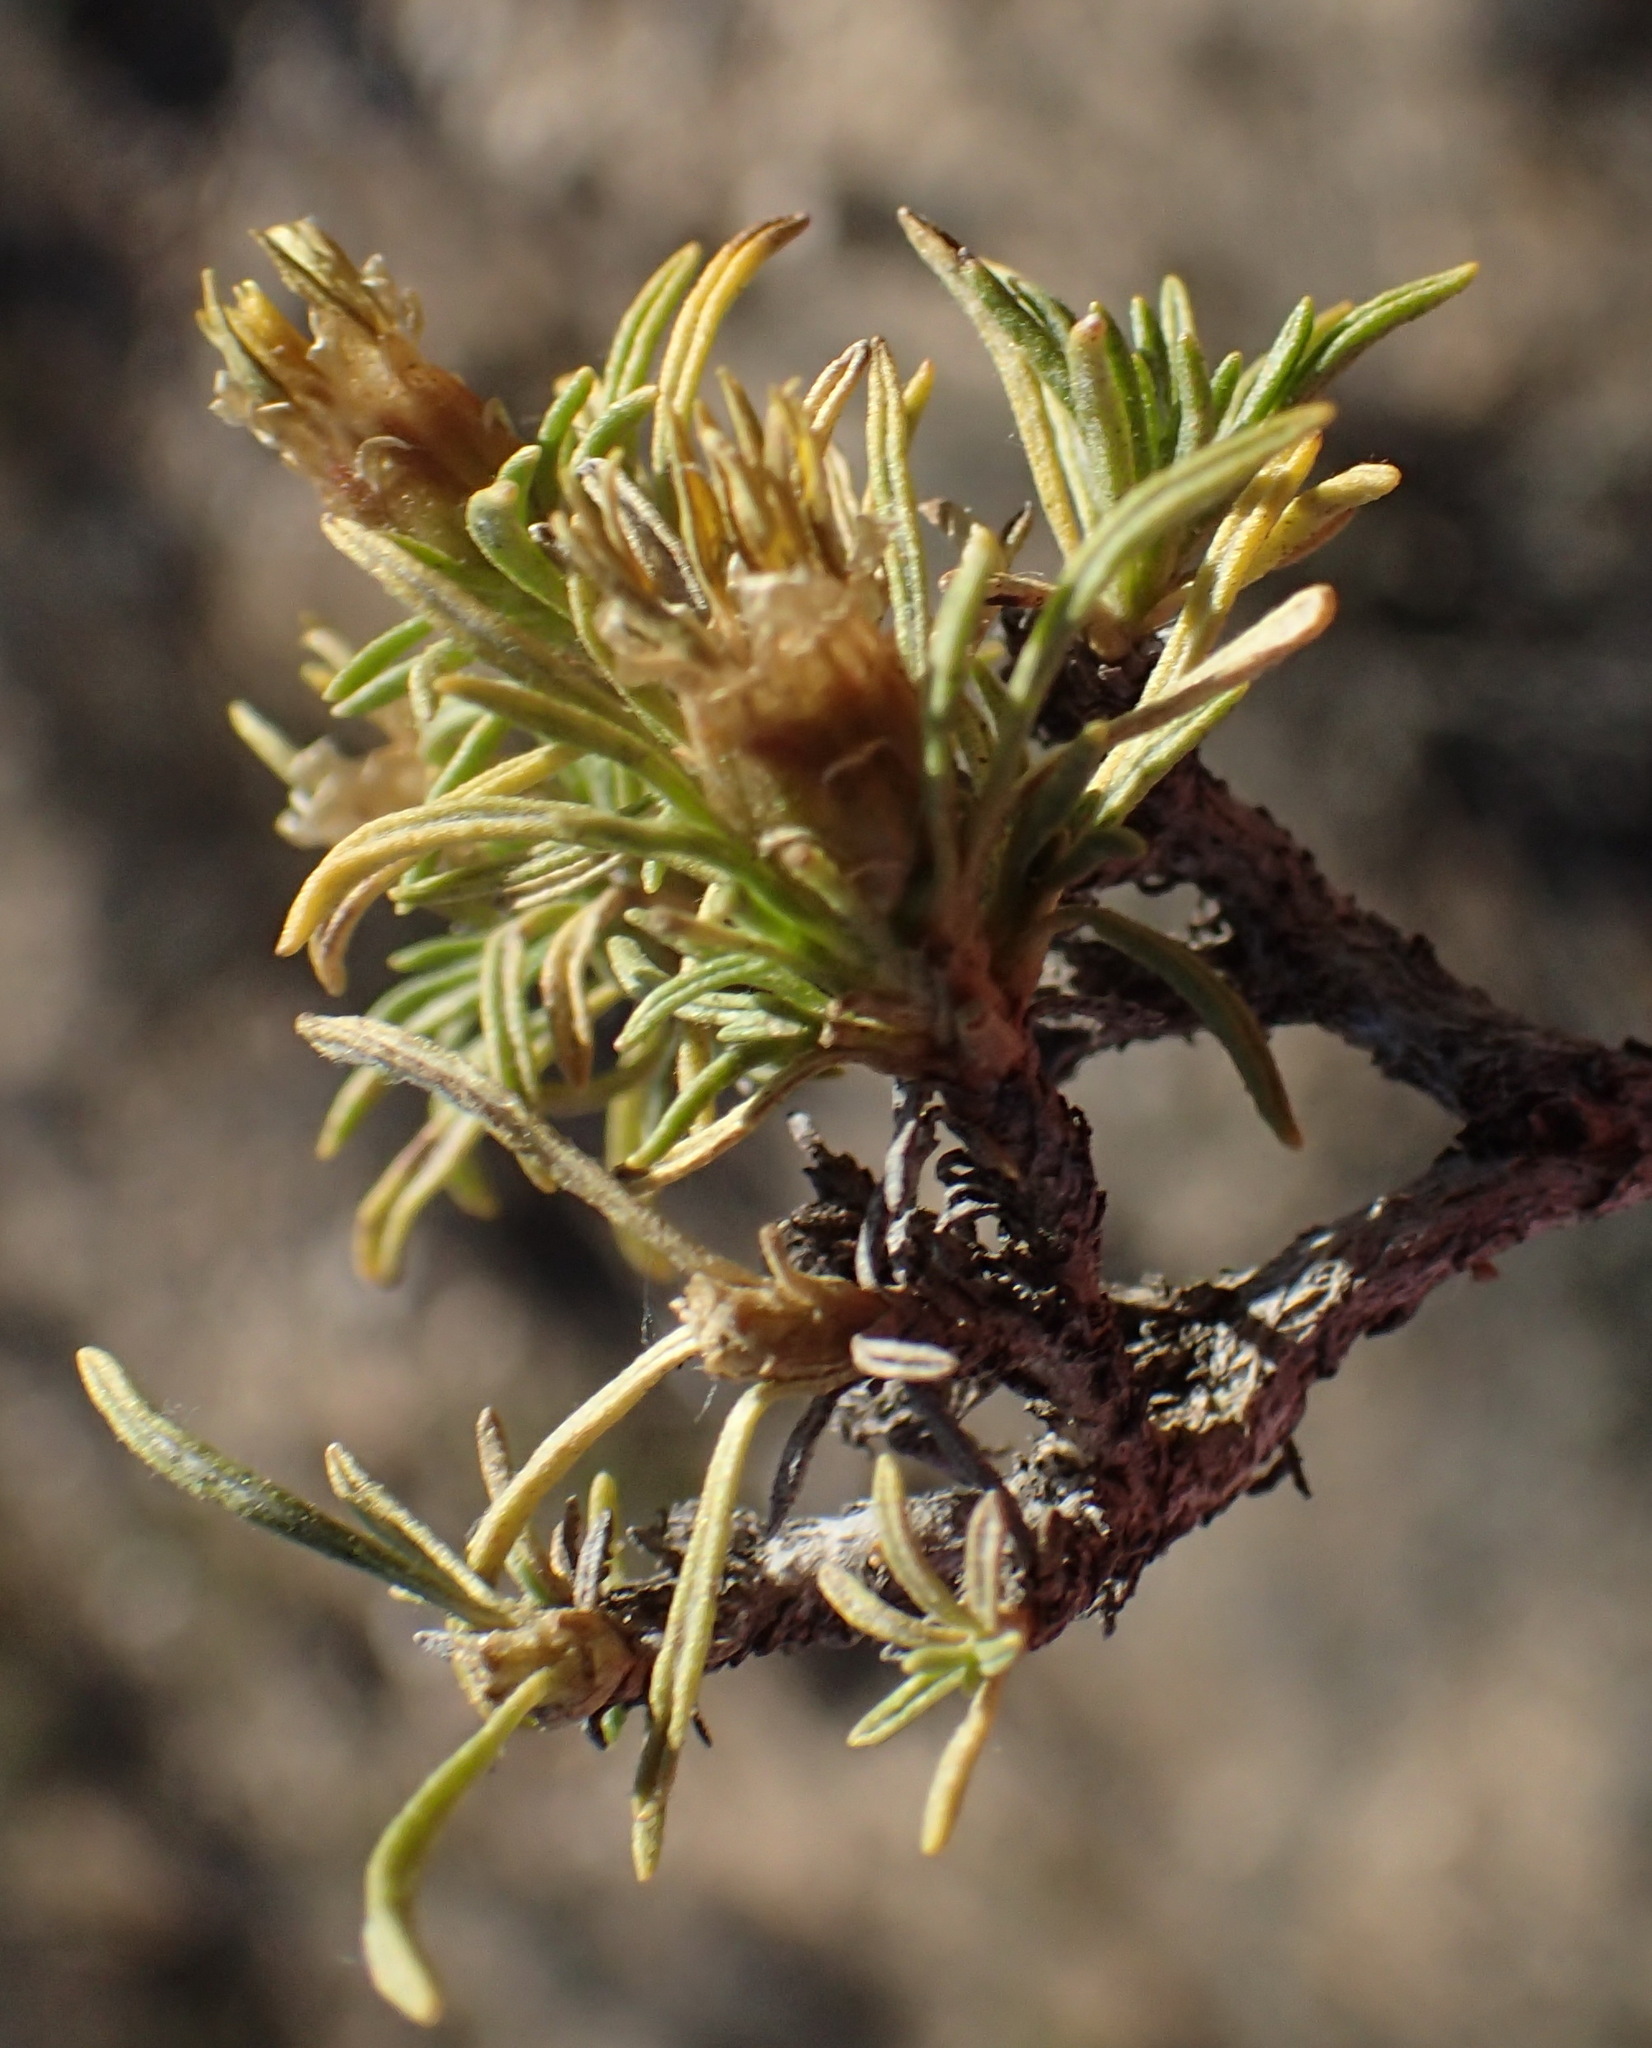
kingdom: Plantae
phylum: Tracheophyta
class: Magnoliopsida
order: Asterales
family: Asteraceae
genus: Athanasia
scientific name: Athanasia minuta
